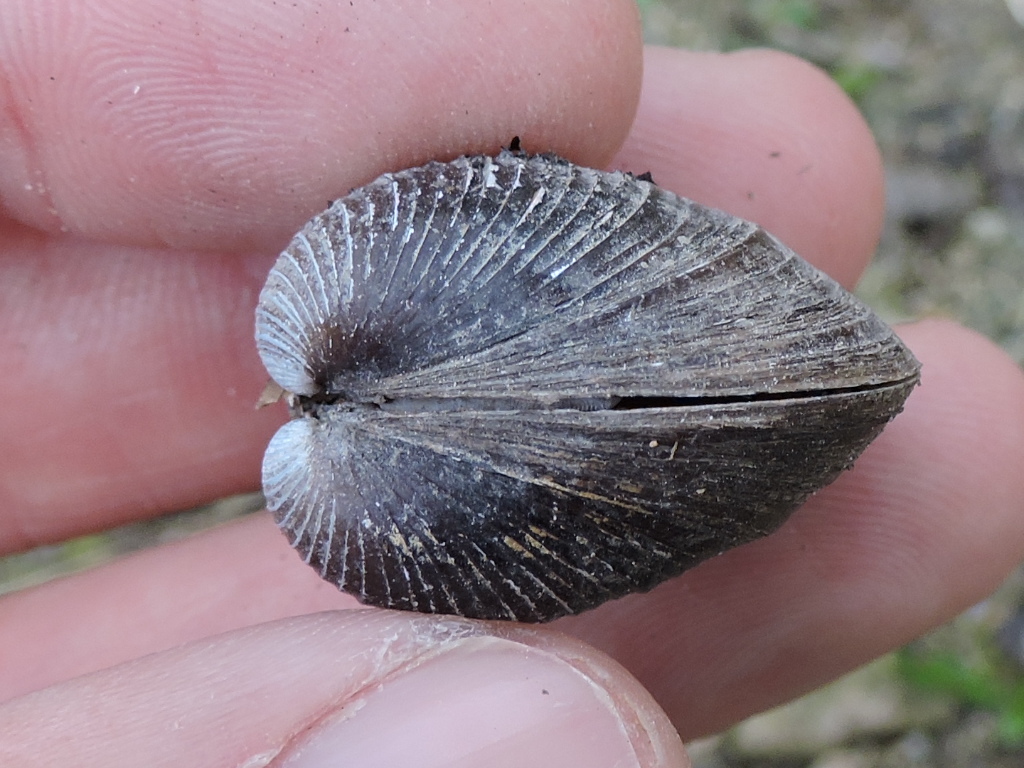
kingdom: Animalia
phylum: Mollusca
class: Bivalvia
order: Venerida
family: Cyrenidae
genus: Corbicula
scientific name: Corbicula fluminea
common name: Asian clam
